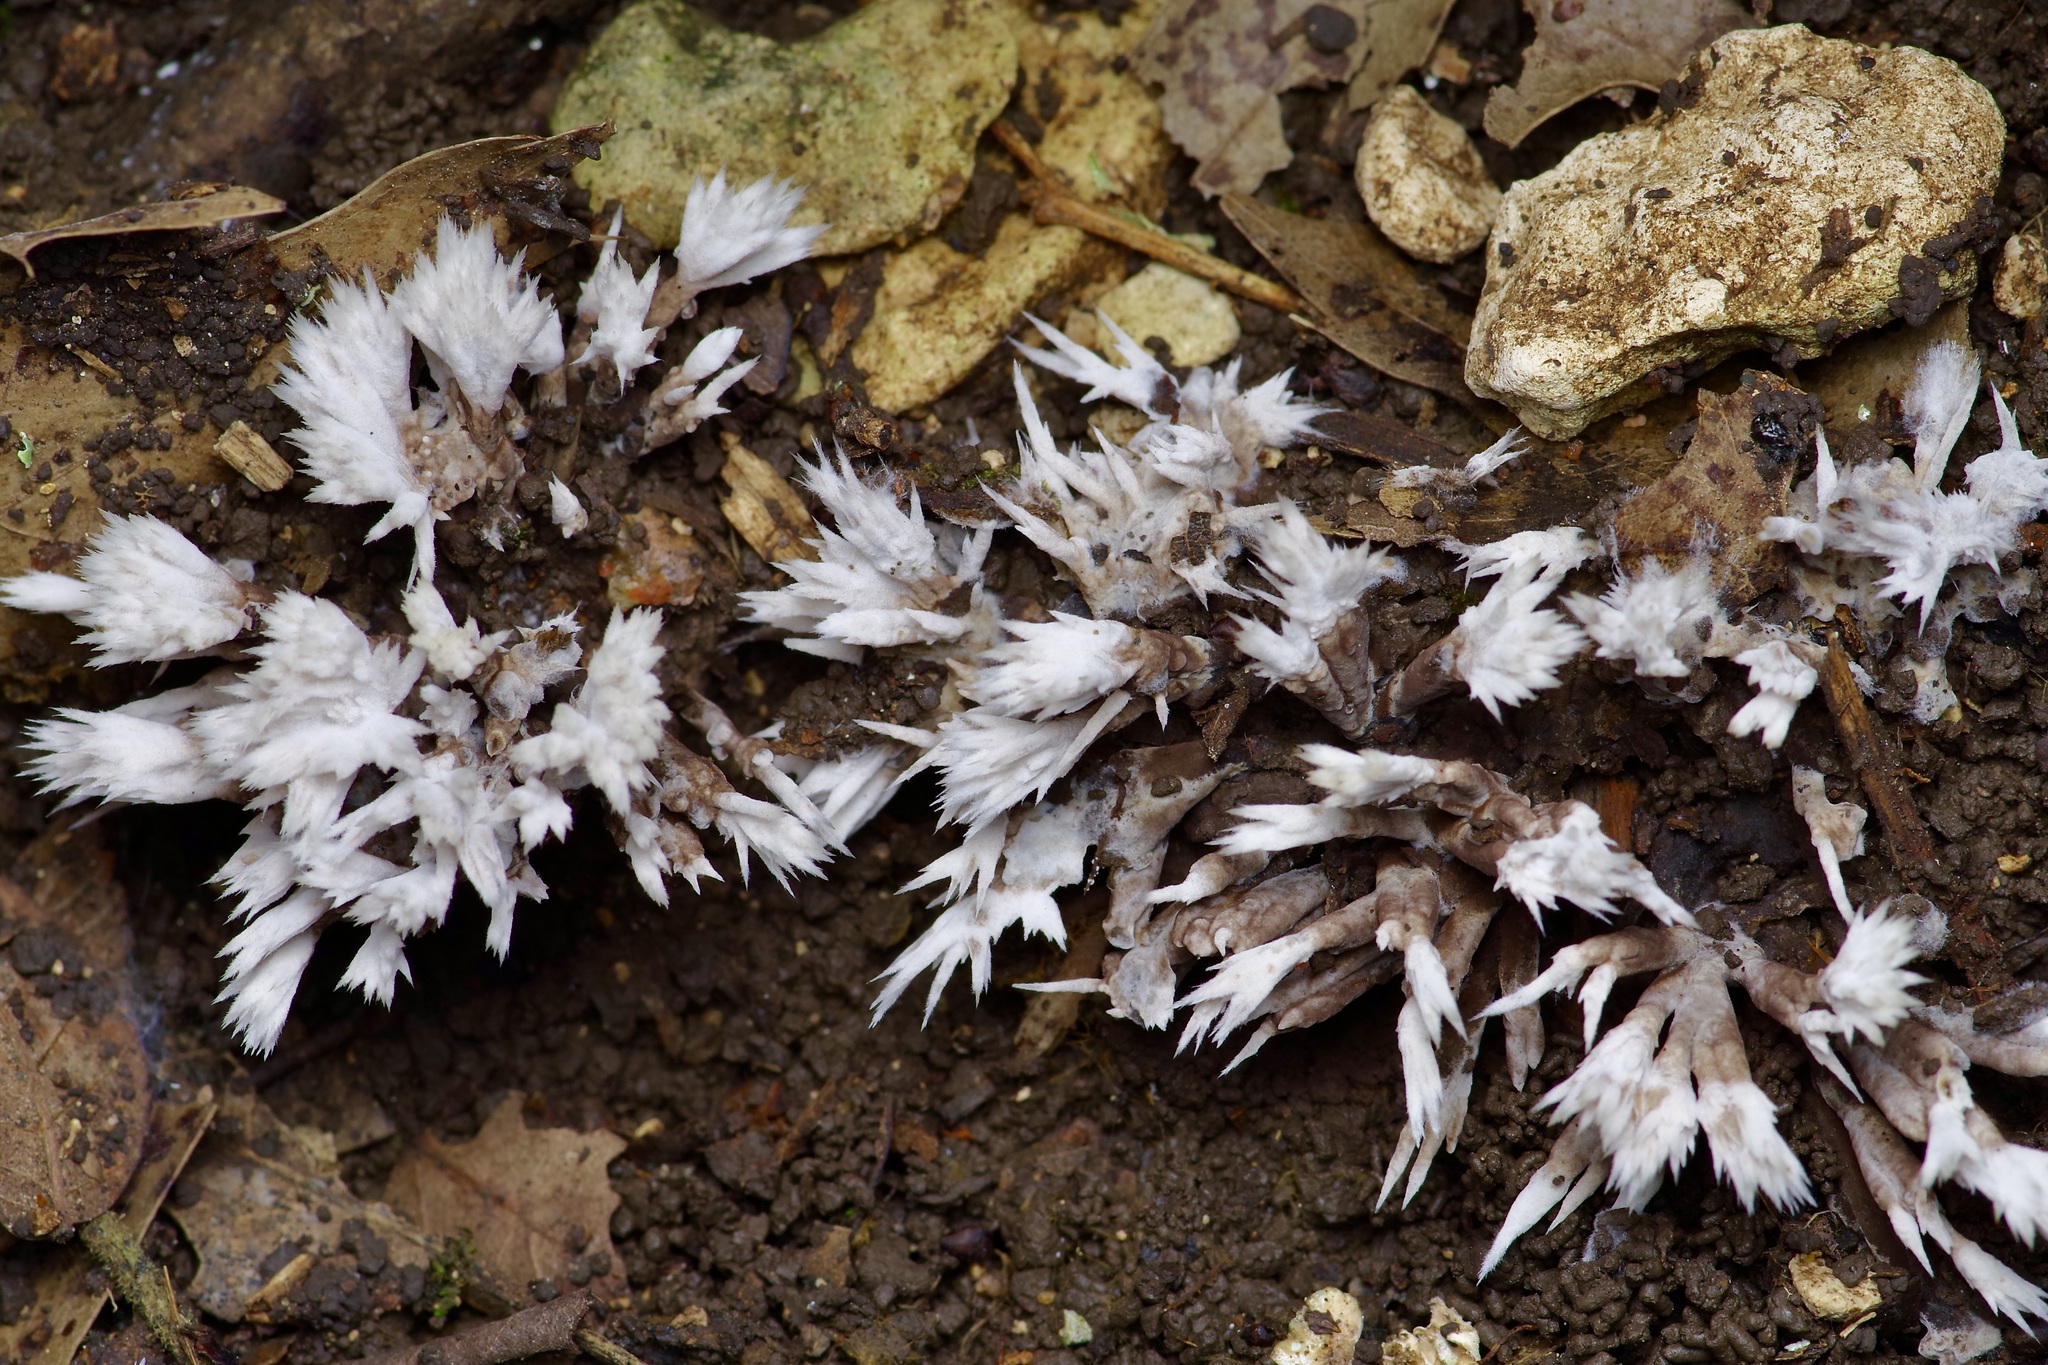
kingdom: Fungi
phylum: Basidiomycota
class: Agaricomycetes
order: Thelephorales
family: Thelephoraceae
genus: Thelephora
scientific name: Thelephora penicillata
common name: Urchin earthfan
